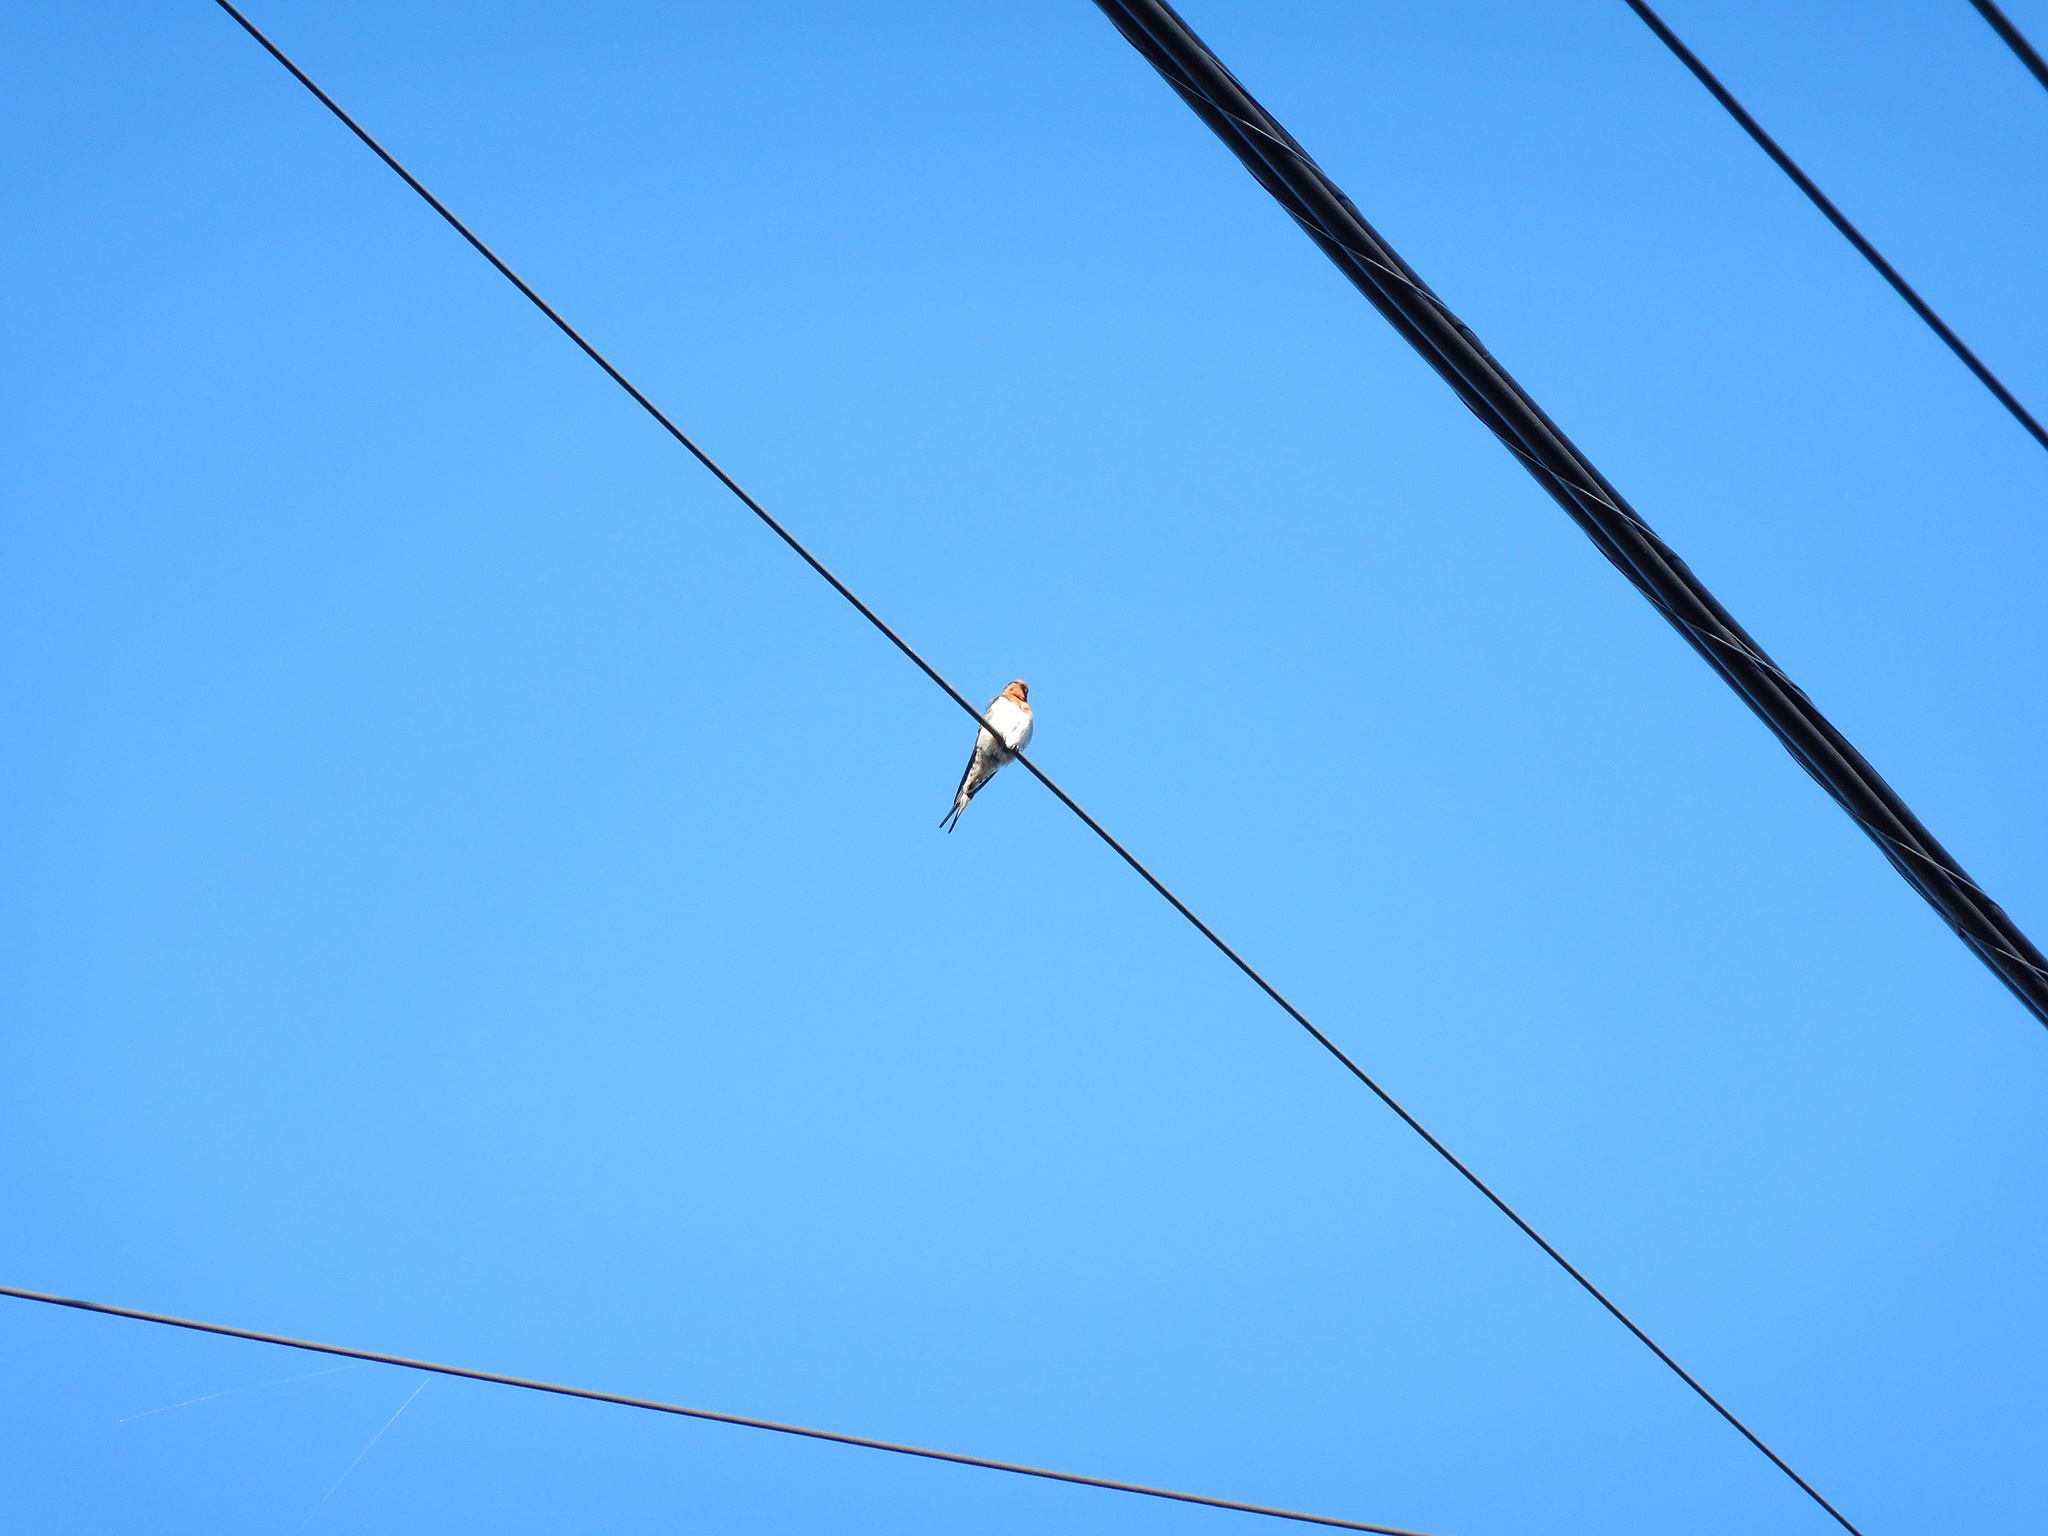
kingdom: Animalia
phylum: Chordata
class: Aves
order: Passeriformes
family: Hirundinidae
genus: Hirundo
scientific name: Hirundo neoxena
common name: Welcome swallow
